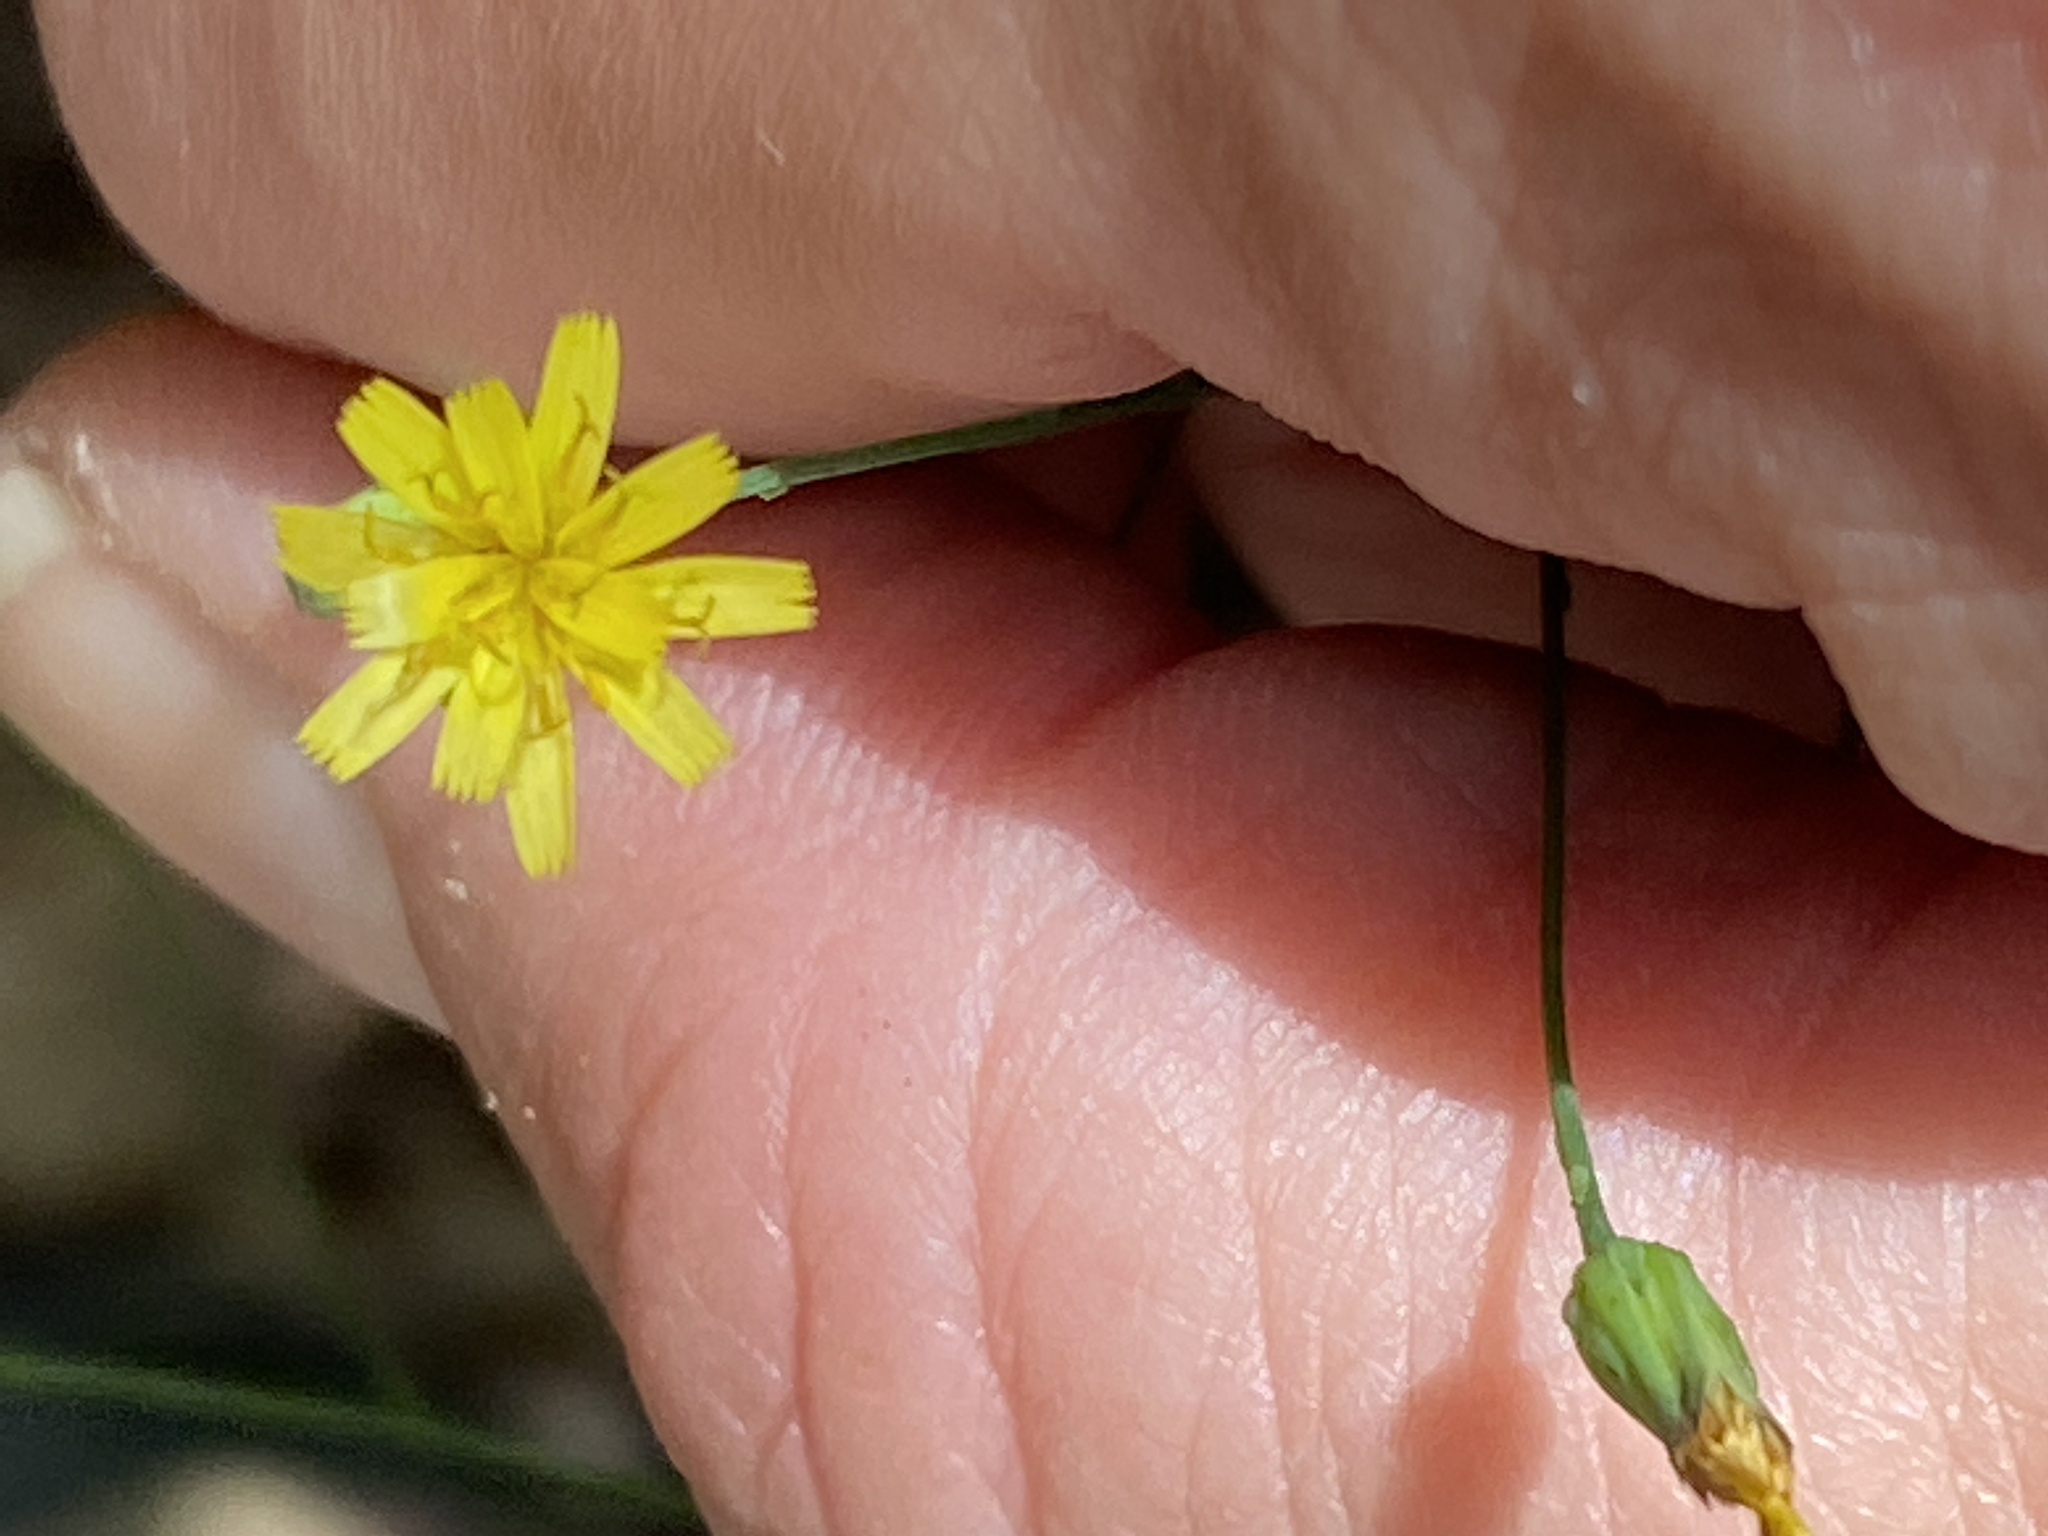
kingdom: Plantae
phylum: Tracheophyta
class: Magnoliopsida
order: Asterales
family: Asteraceae
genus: Hieracium
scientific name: Hieracium paniculatum
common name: Allegheny hawkweed
